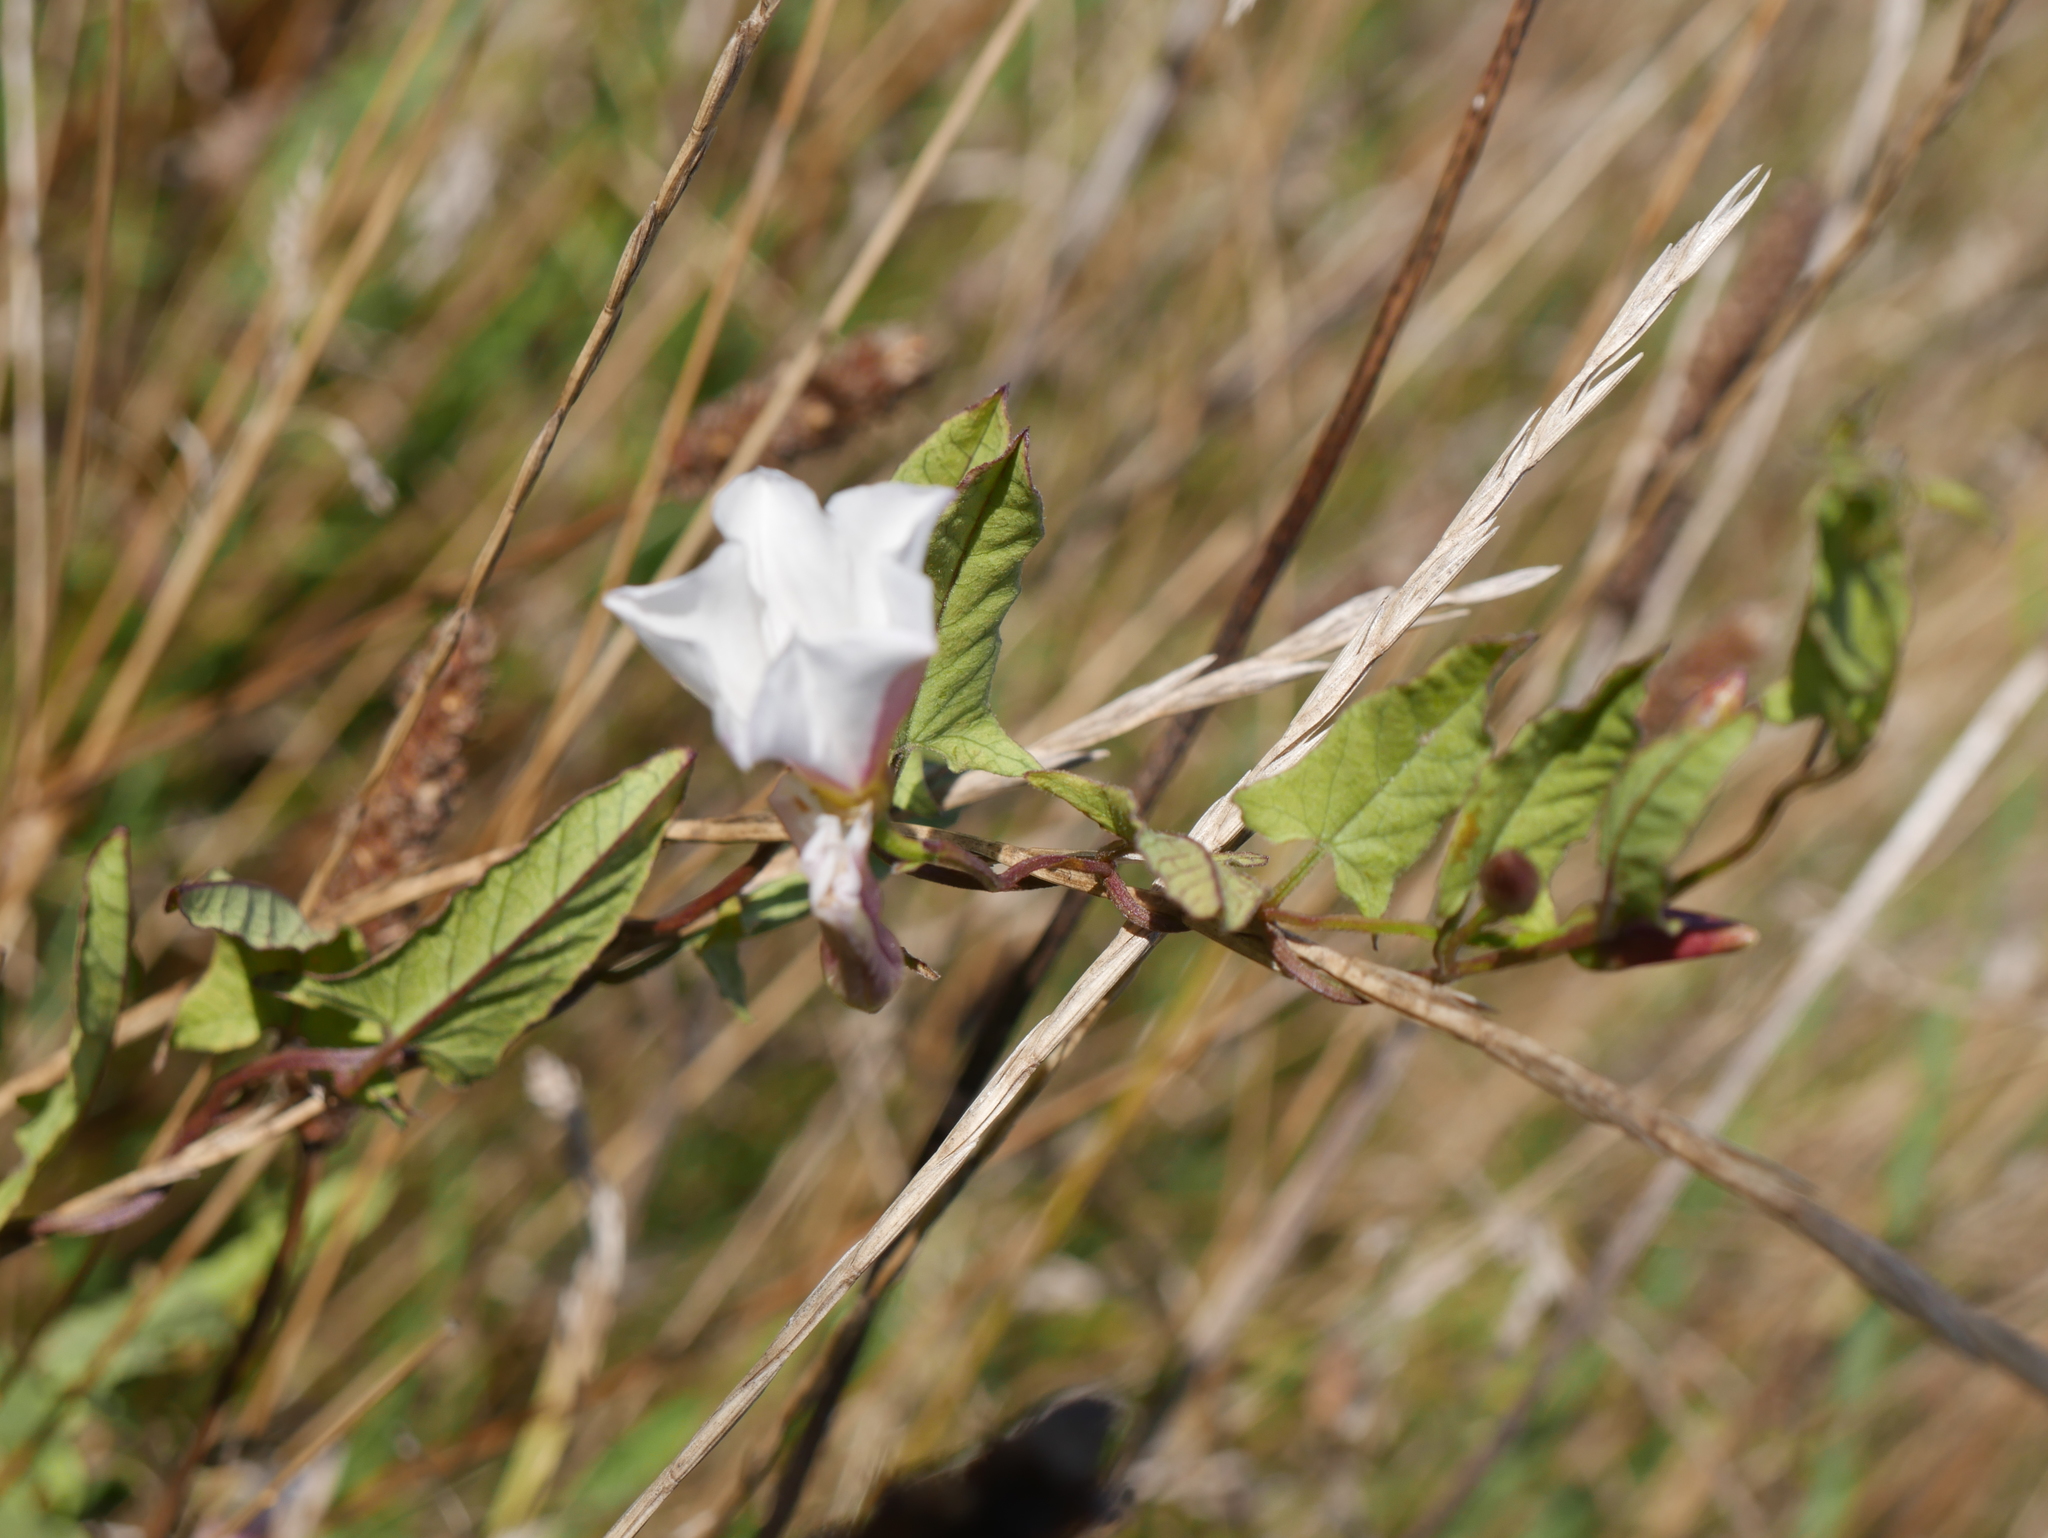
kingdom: Plantae
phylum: Tracheophyta
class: Magnoliopsida
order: Solanales
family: Convolvulaceae
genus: Convolvulus
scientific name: Convolvulus arvensis
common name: Field bindweed
